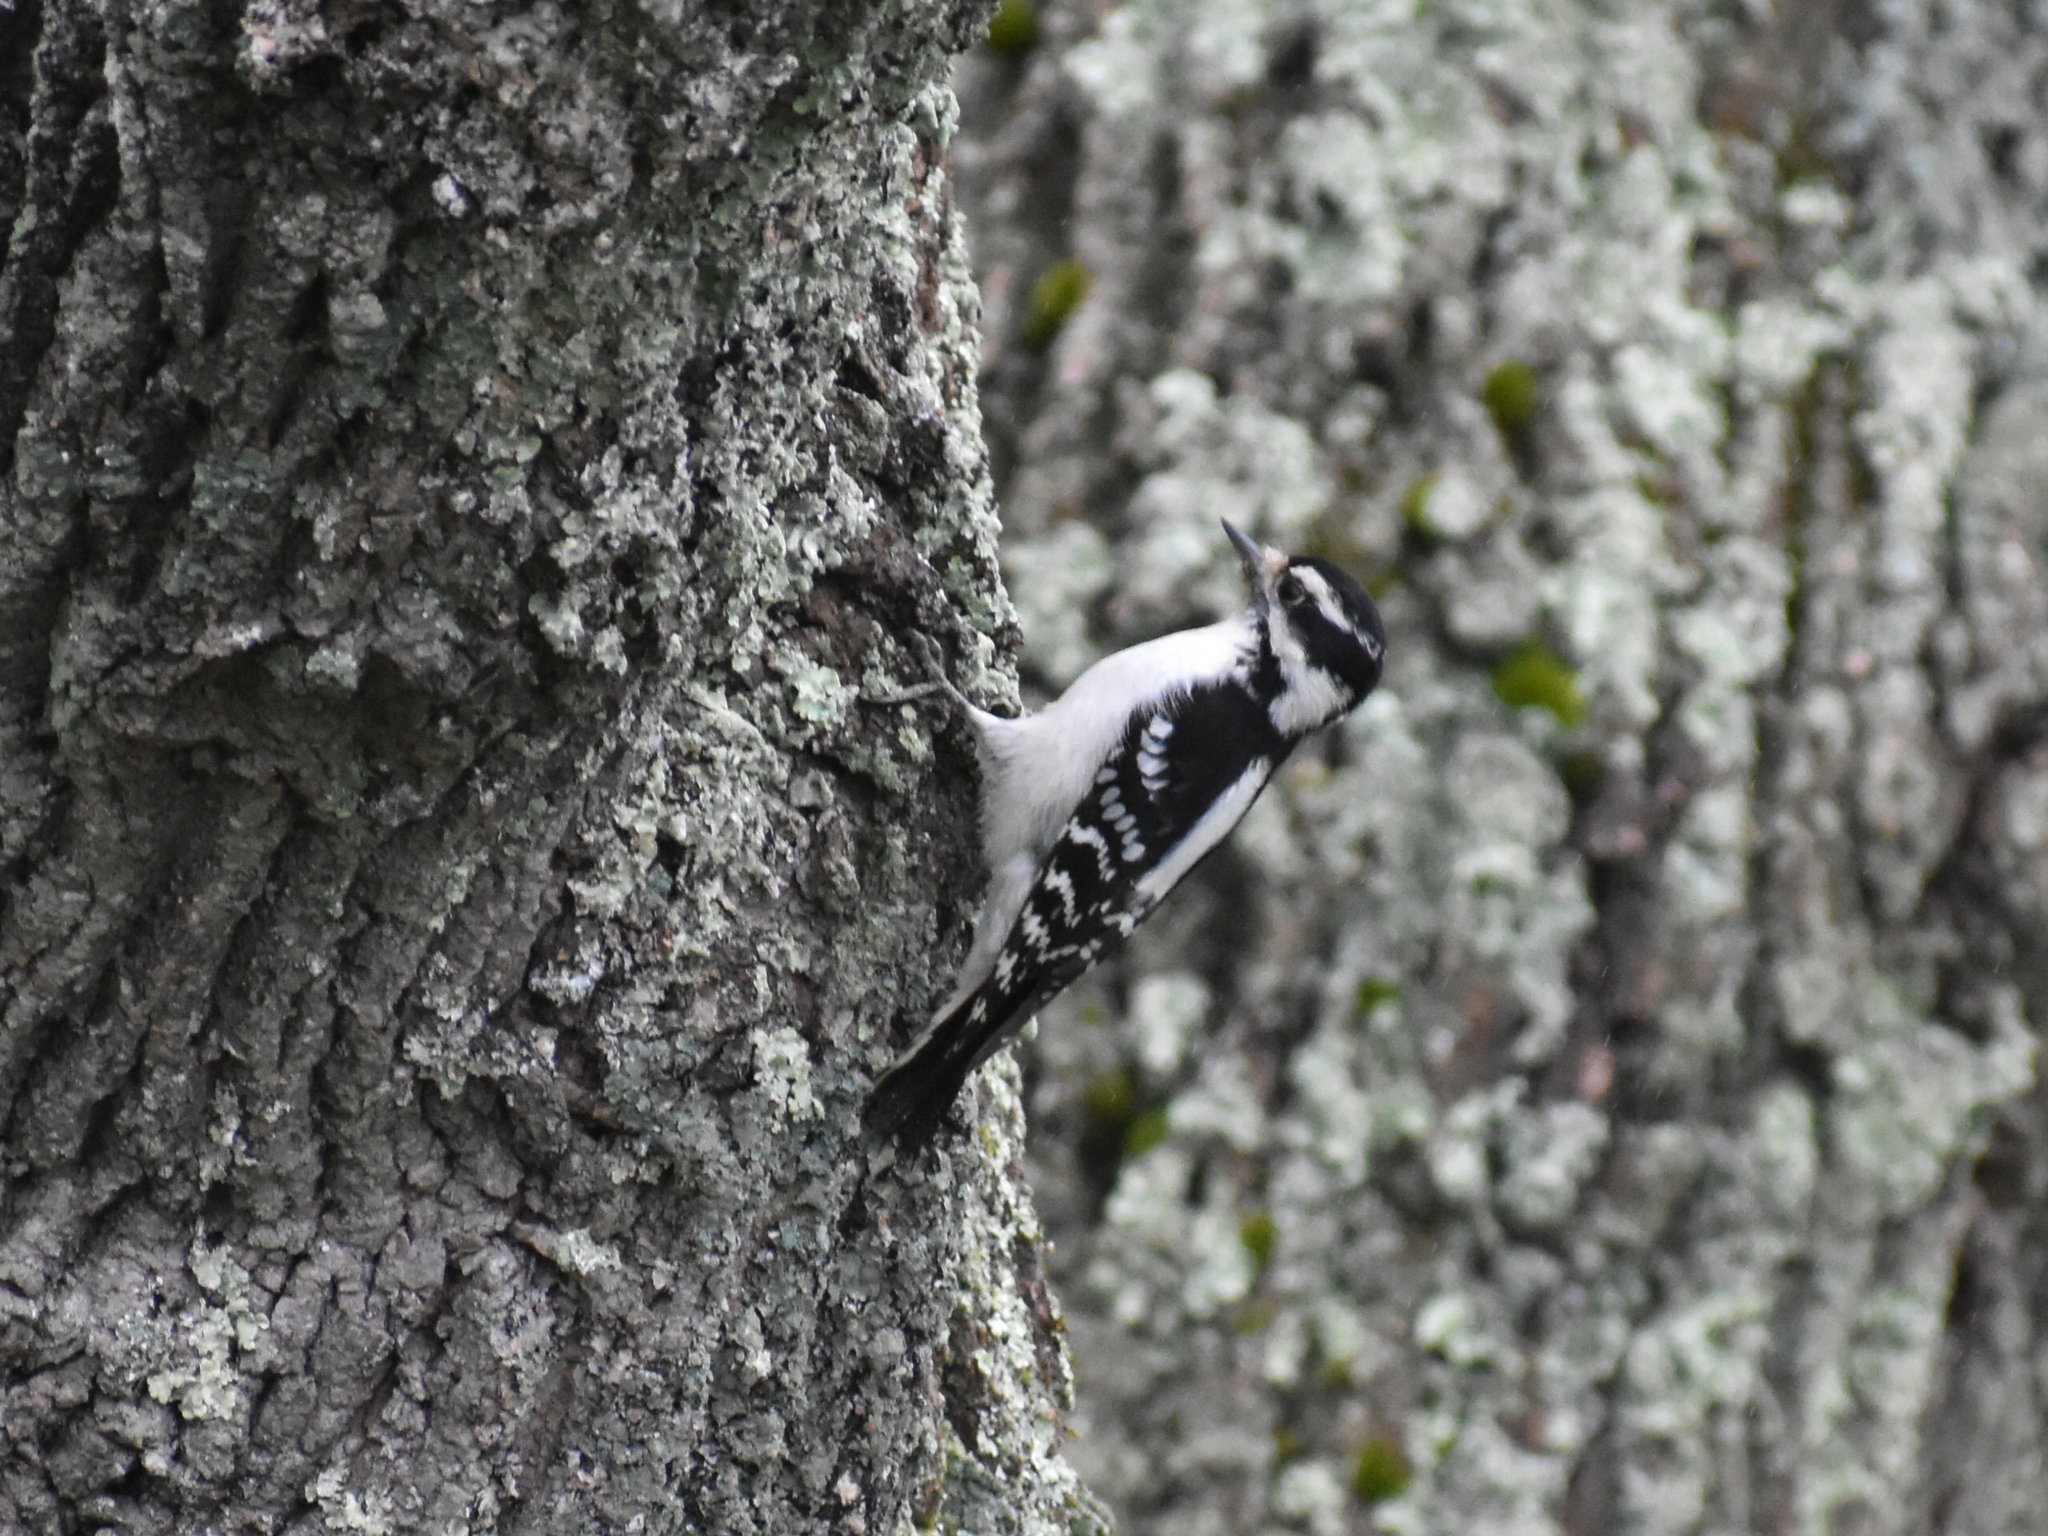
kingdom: Animalia
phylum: Chordata
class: Aves
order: Piciformes
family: Picidae
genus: Dryobates
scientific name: Dryobates pubescens
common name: Downy woodpecker
